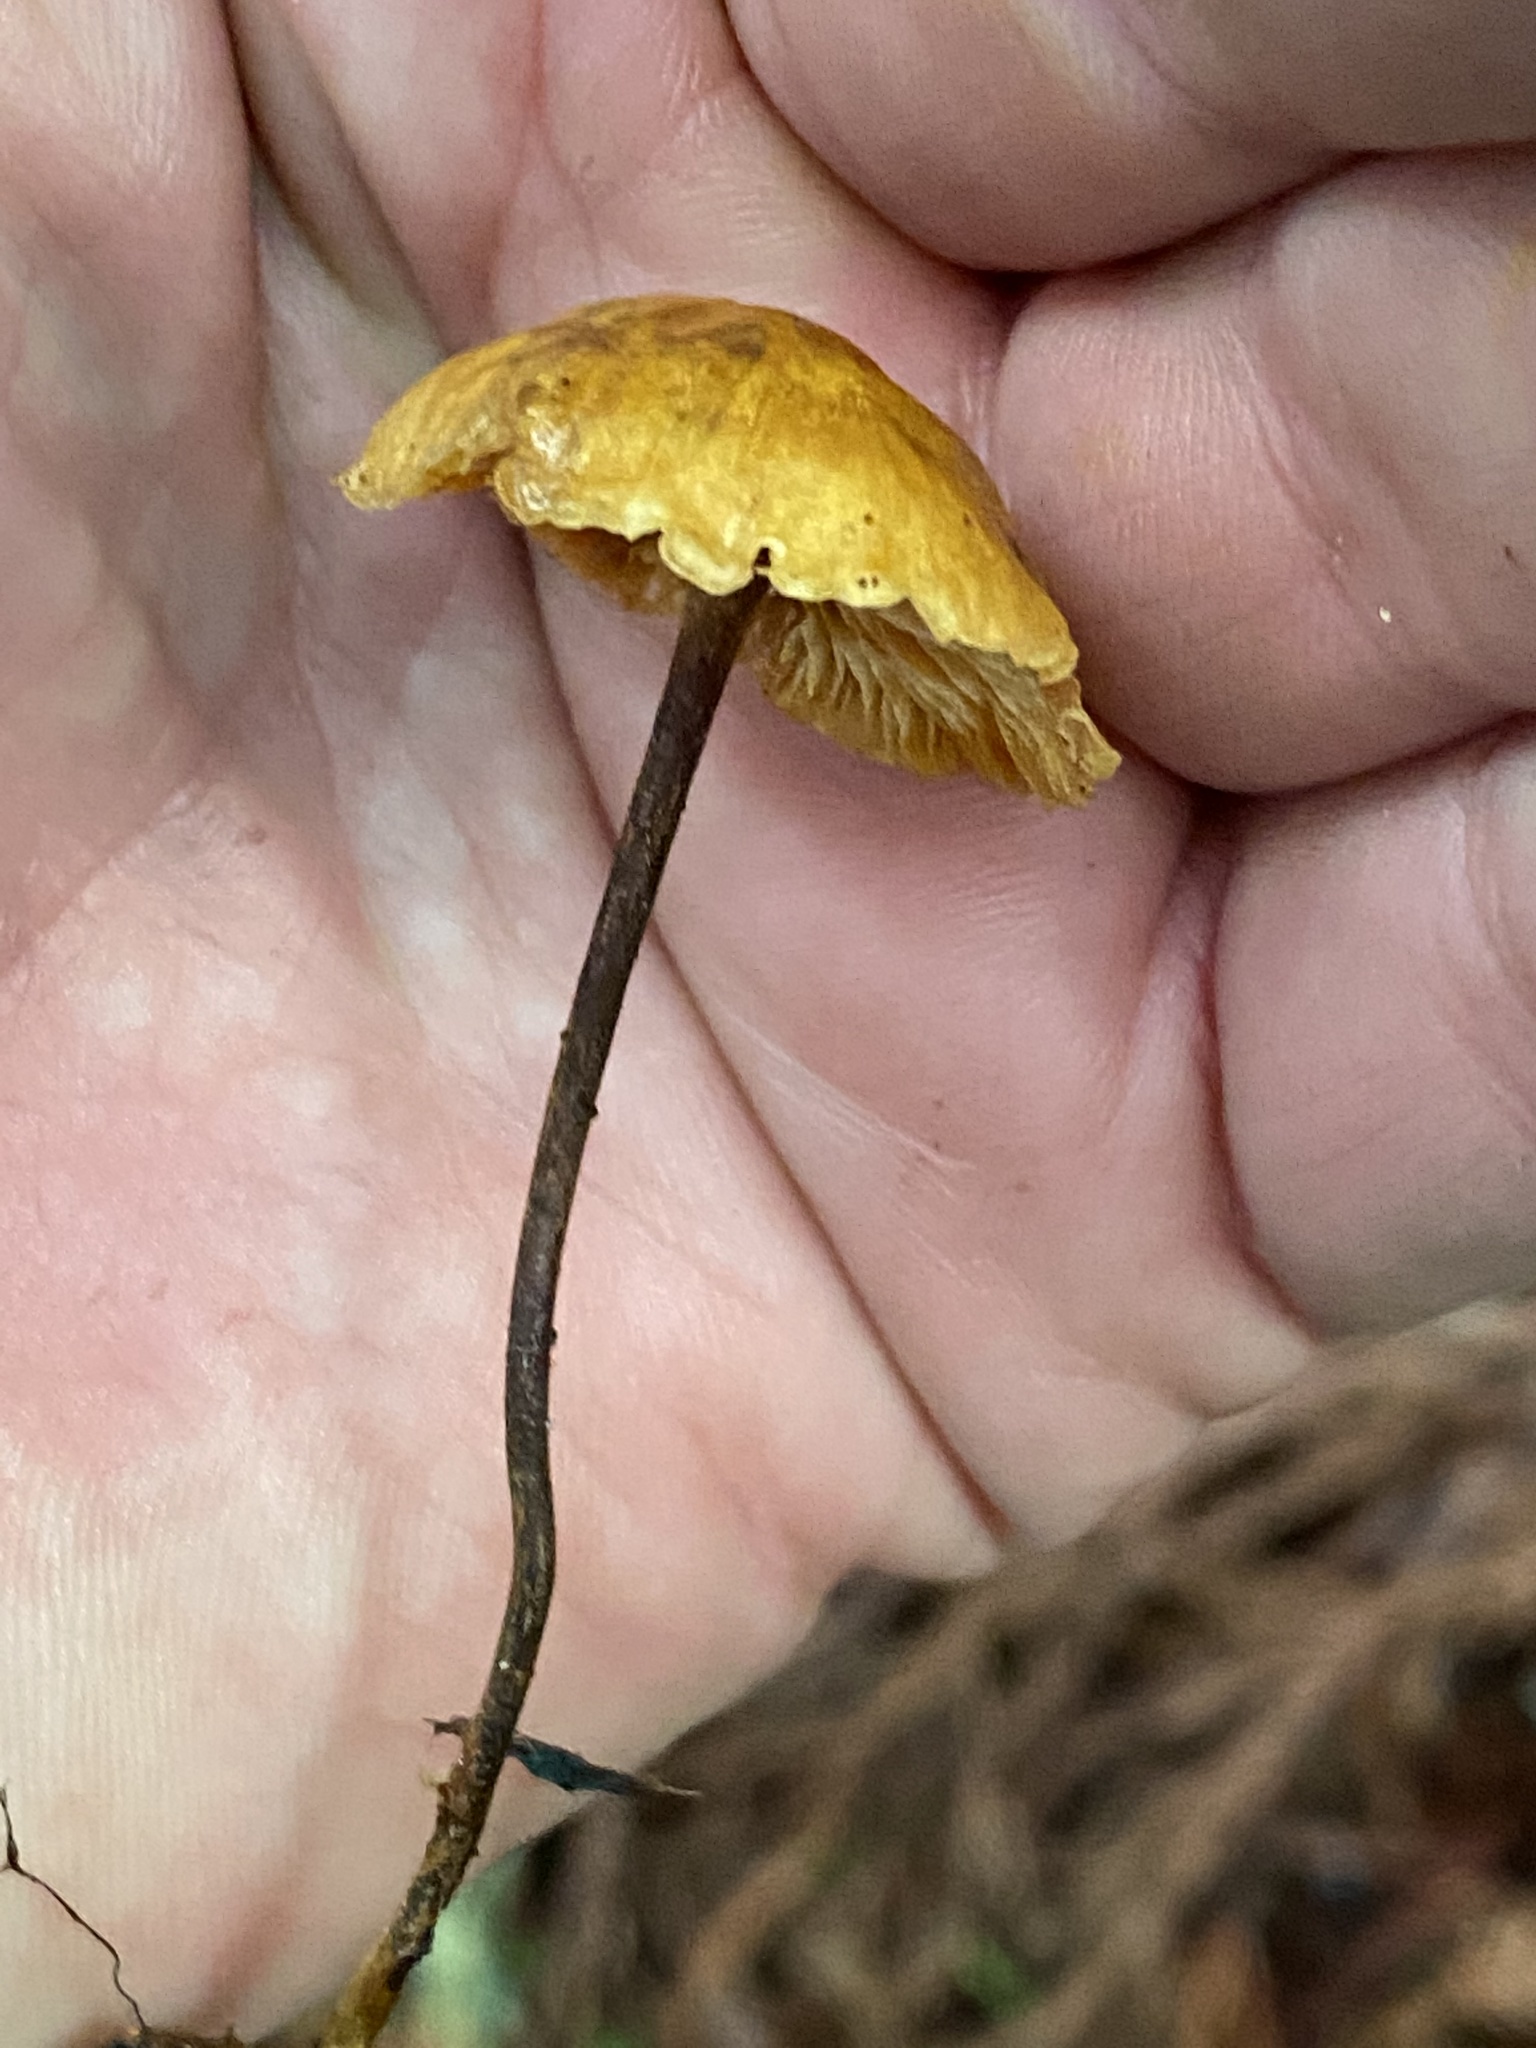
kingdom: Fungi
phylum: Basidiomycota
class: Agaricomycetes
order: Agaricales
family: Mycenaceae
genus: Xeromphalina
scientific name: Xeromphalina cauticinalis
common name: Pinelitter gingertail
